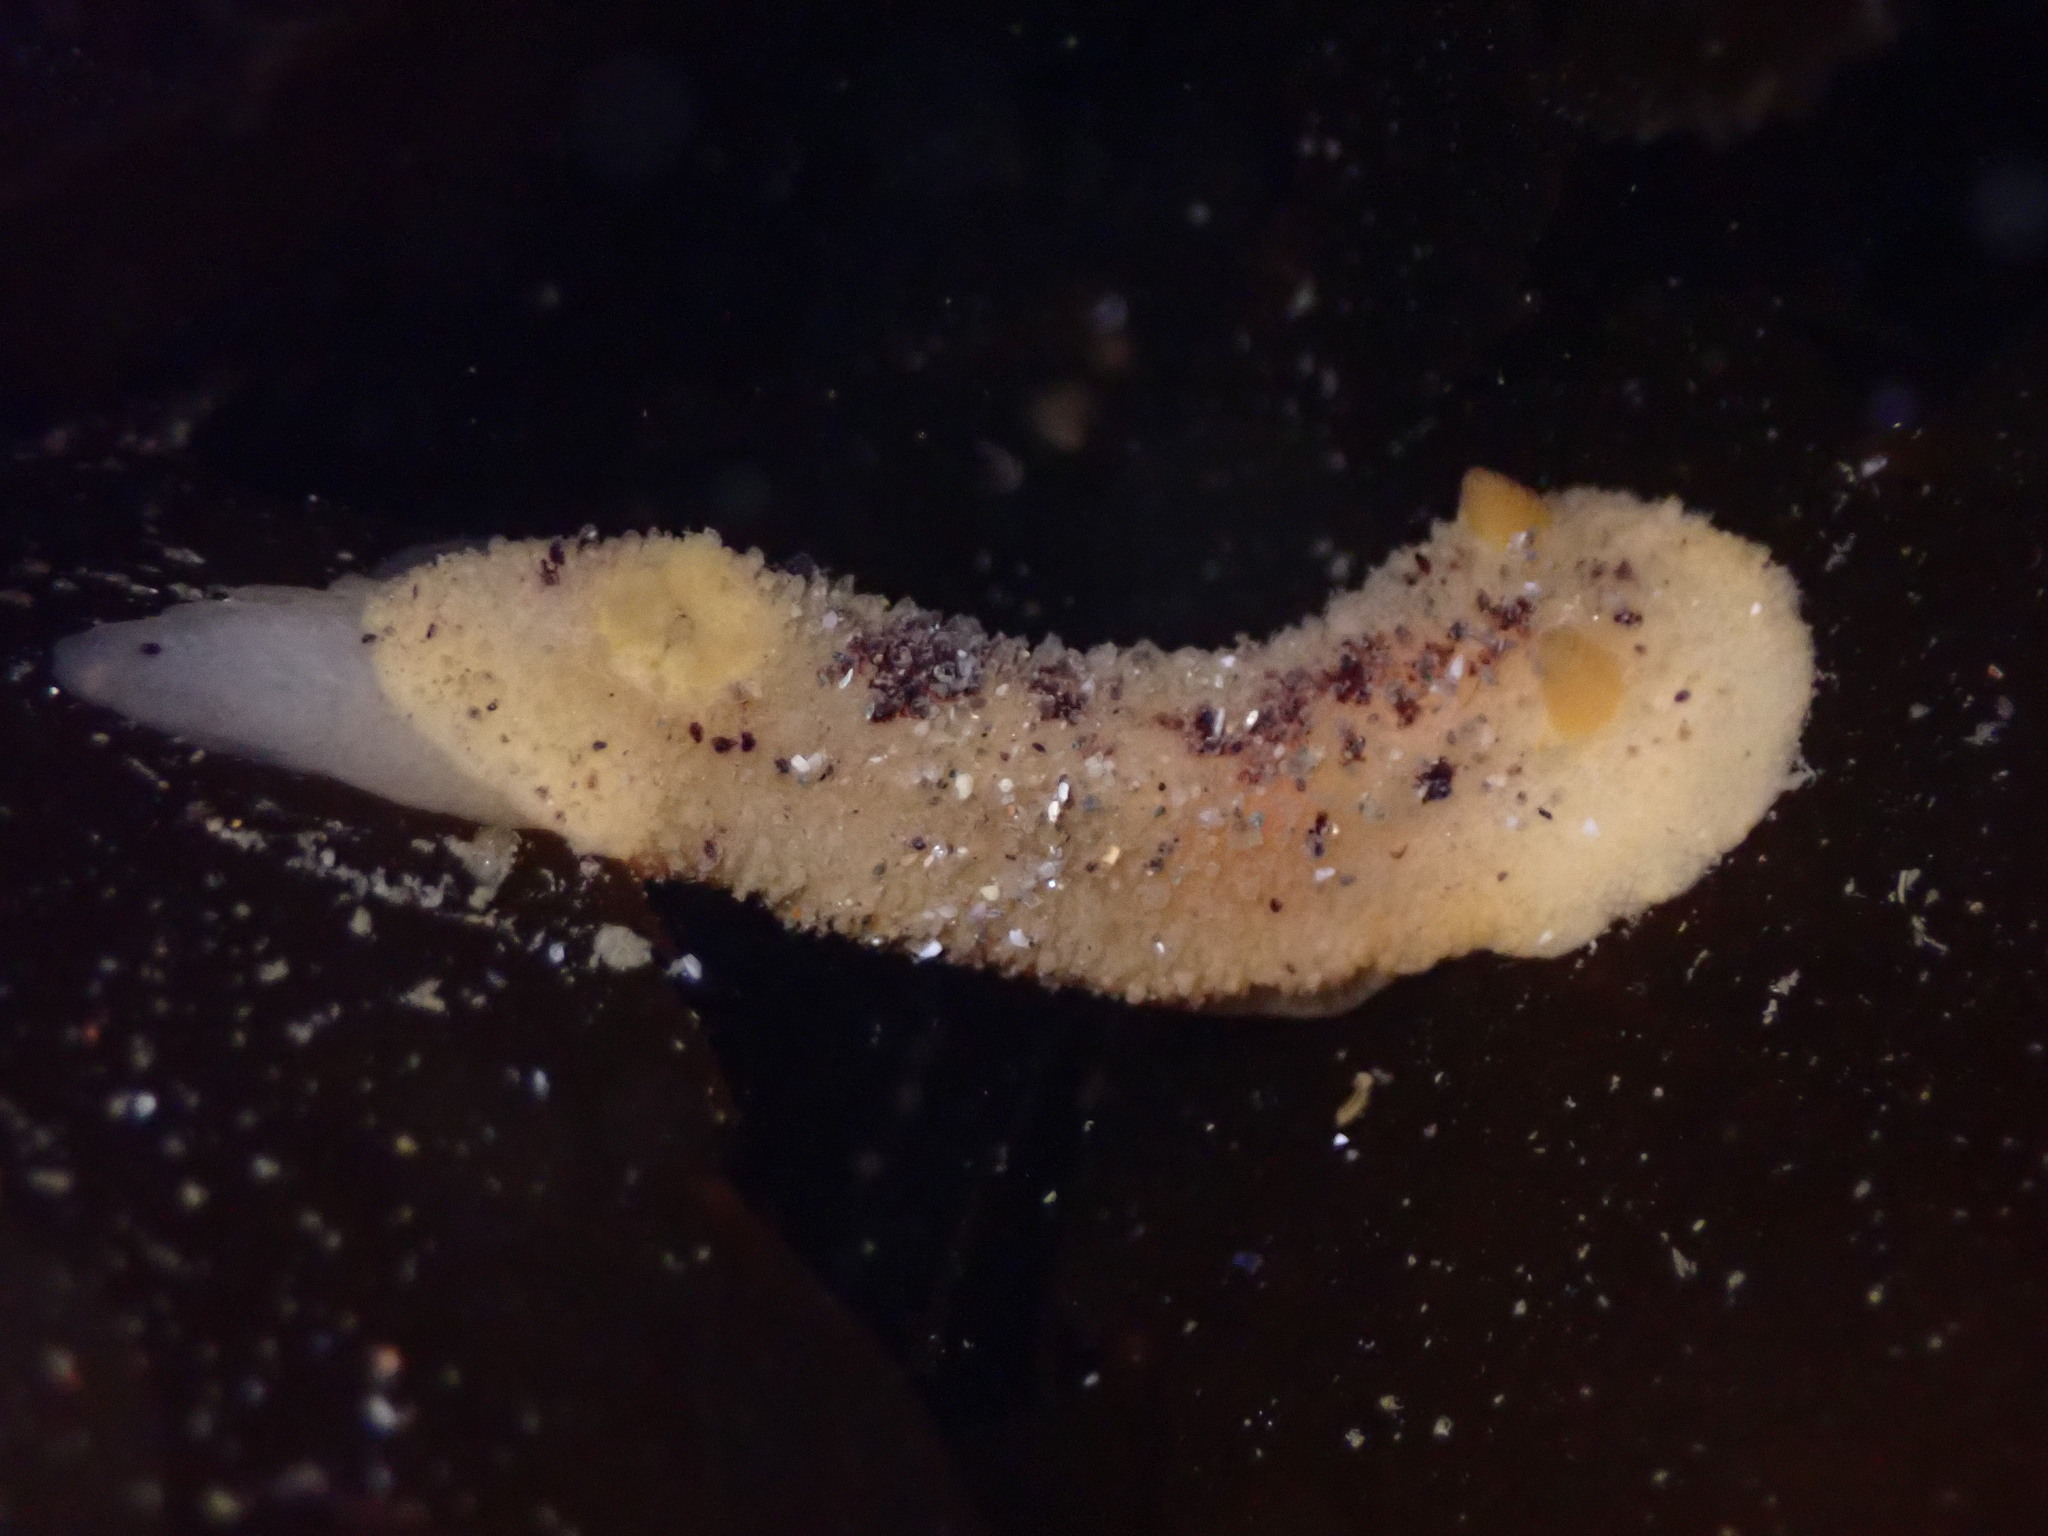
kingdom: Animalia
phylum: Mollusca
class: Gastropoda
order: Nudibranchia
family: Dorididae
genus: Doris
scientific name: Doris montereyensis
